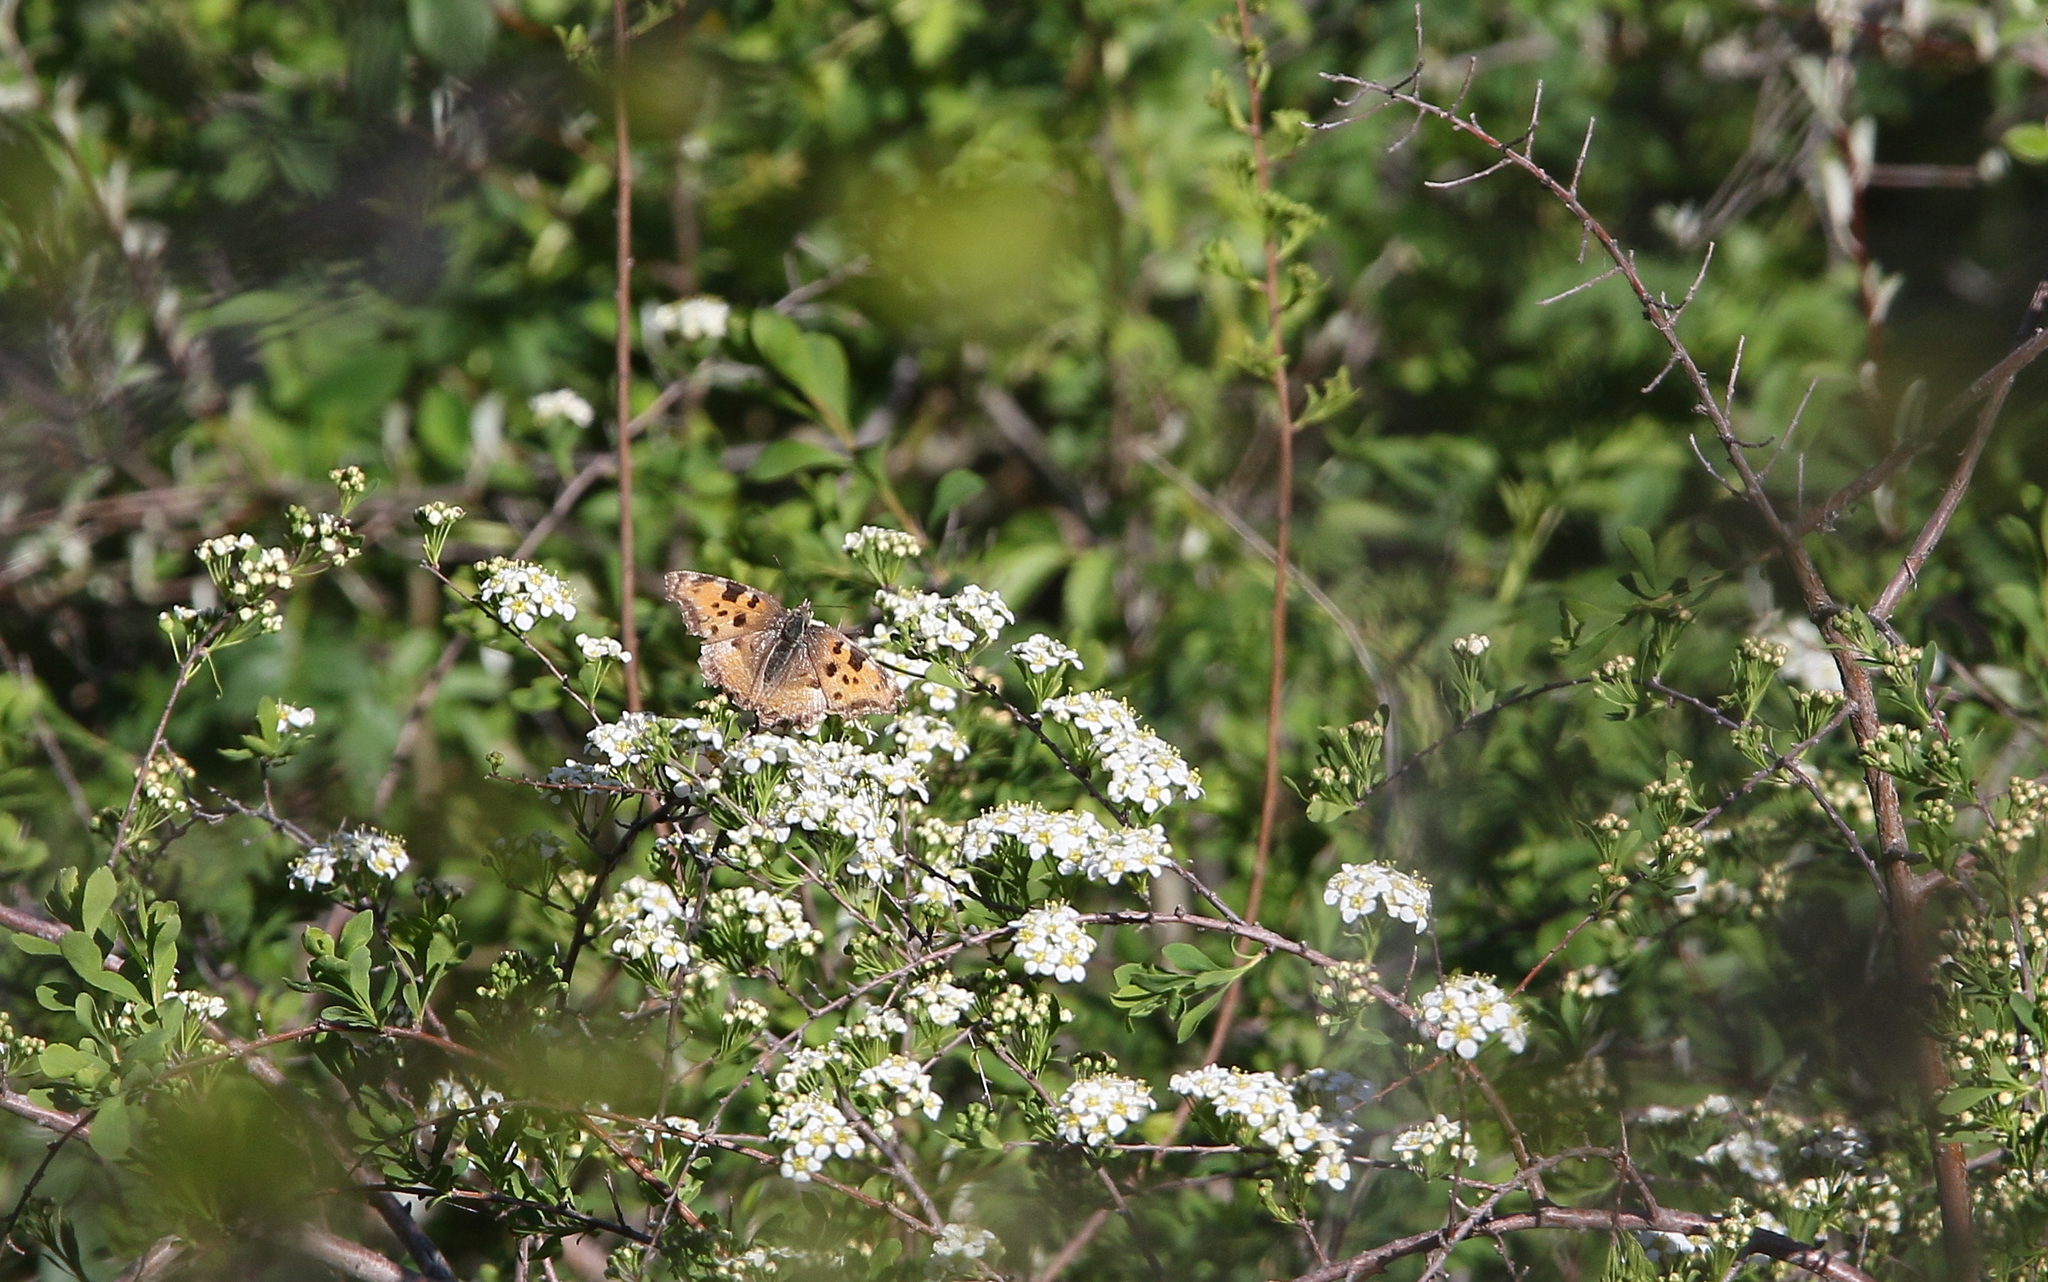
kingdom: Animalia
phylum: Arthropoda
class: Insecta
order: Lepidoptera
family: Nymphalidae
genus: Nymphalis
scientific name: Nymphalis polychloros
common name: Large tortoiseshell
